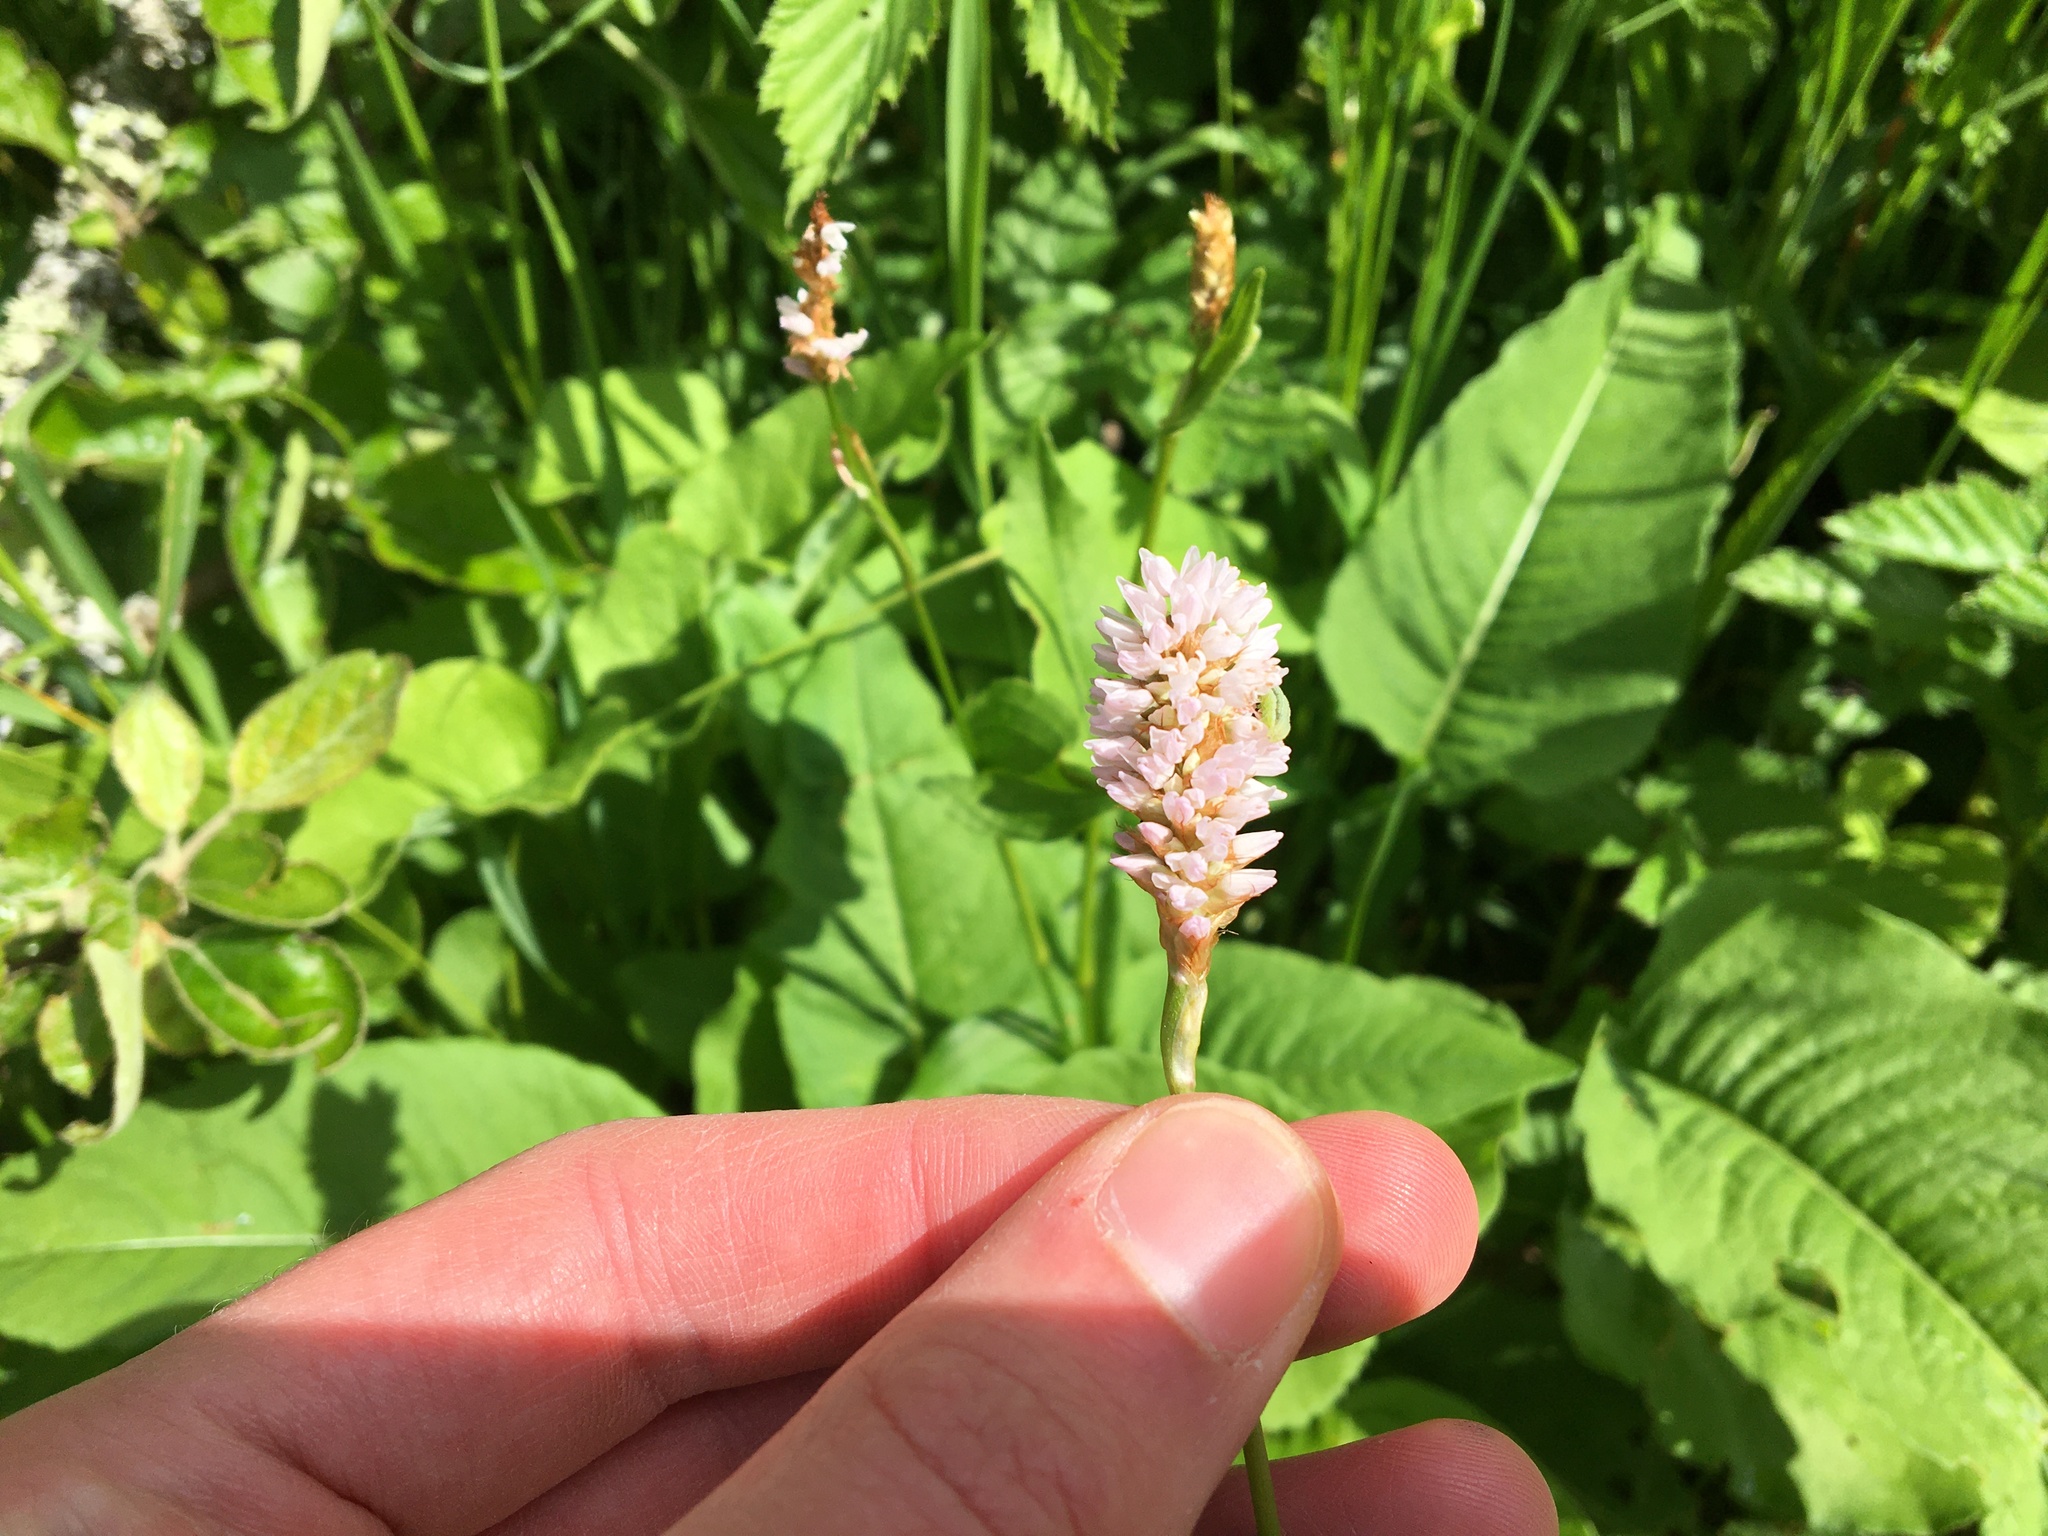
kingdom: Plantae
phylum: Tracheophyta
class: Magnoliopsida
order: Caryophyllales
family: Polygonaceae
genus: Bistorta
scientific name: Bistorta officinalis
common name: Common bistort
